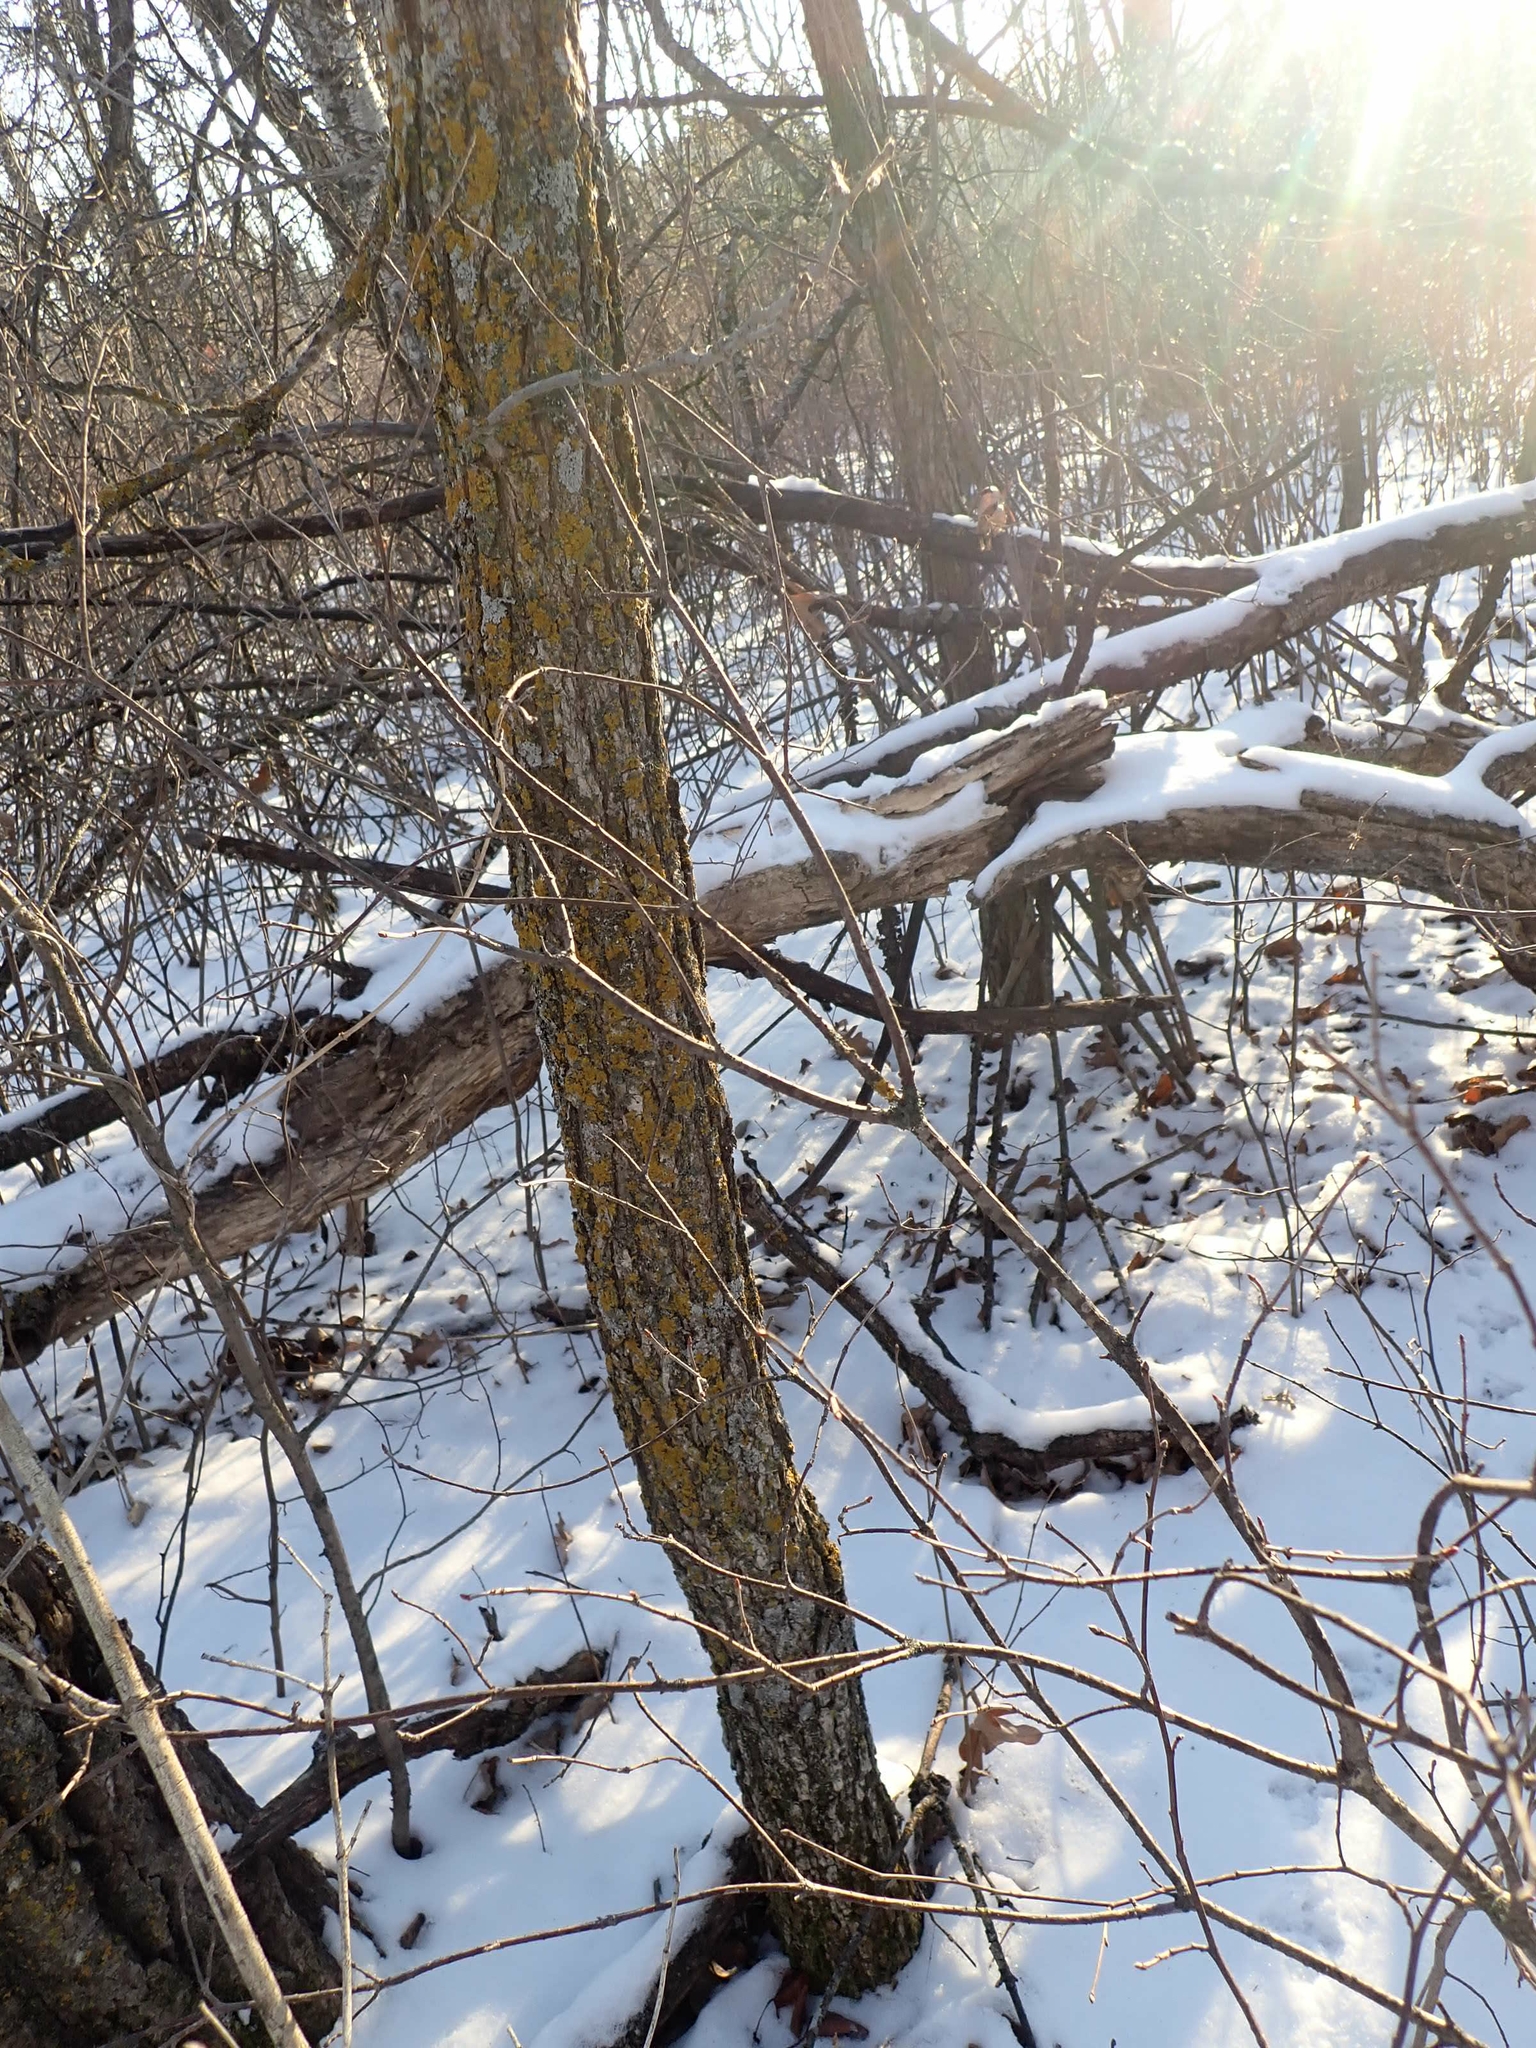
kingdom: Animalia
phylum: Chordata
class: Aves
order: Galliformes
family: Phasianidae
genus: Bonasa
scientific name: Bonasa umbellus
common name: Ruffed grouse
